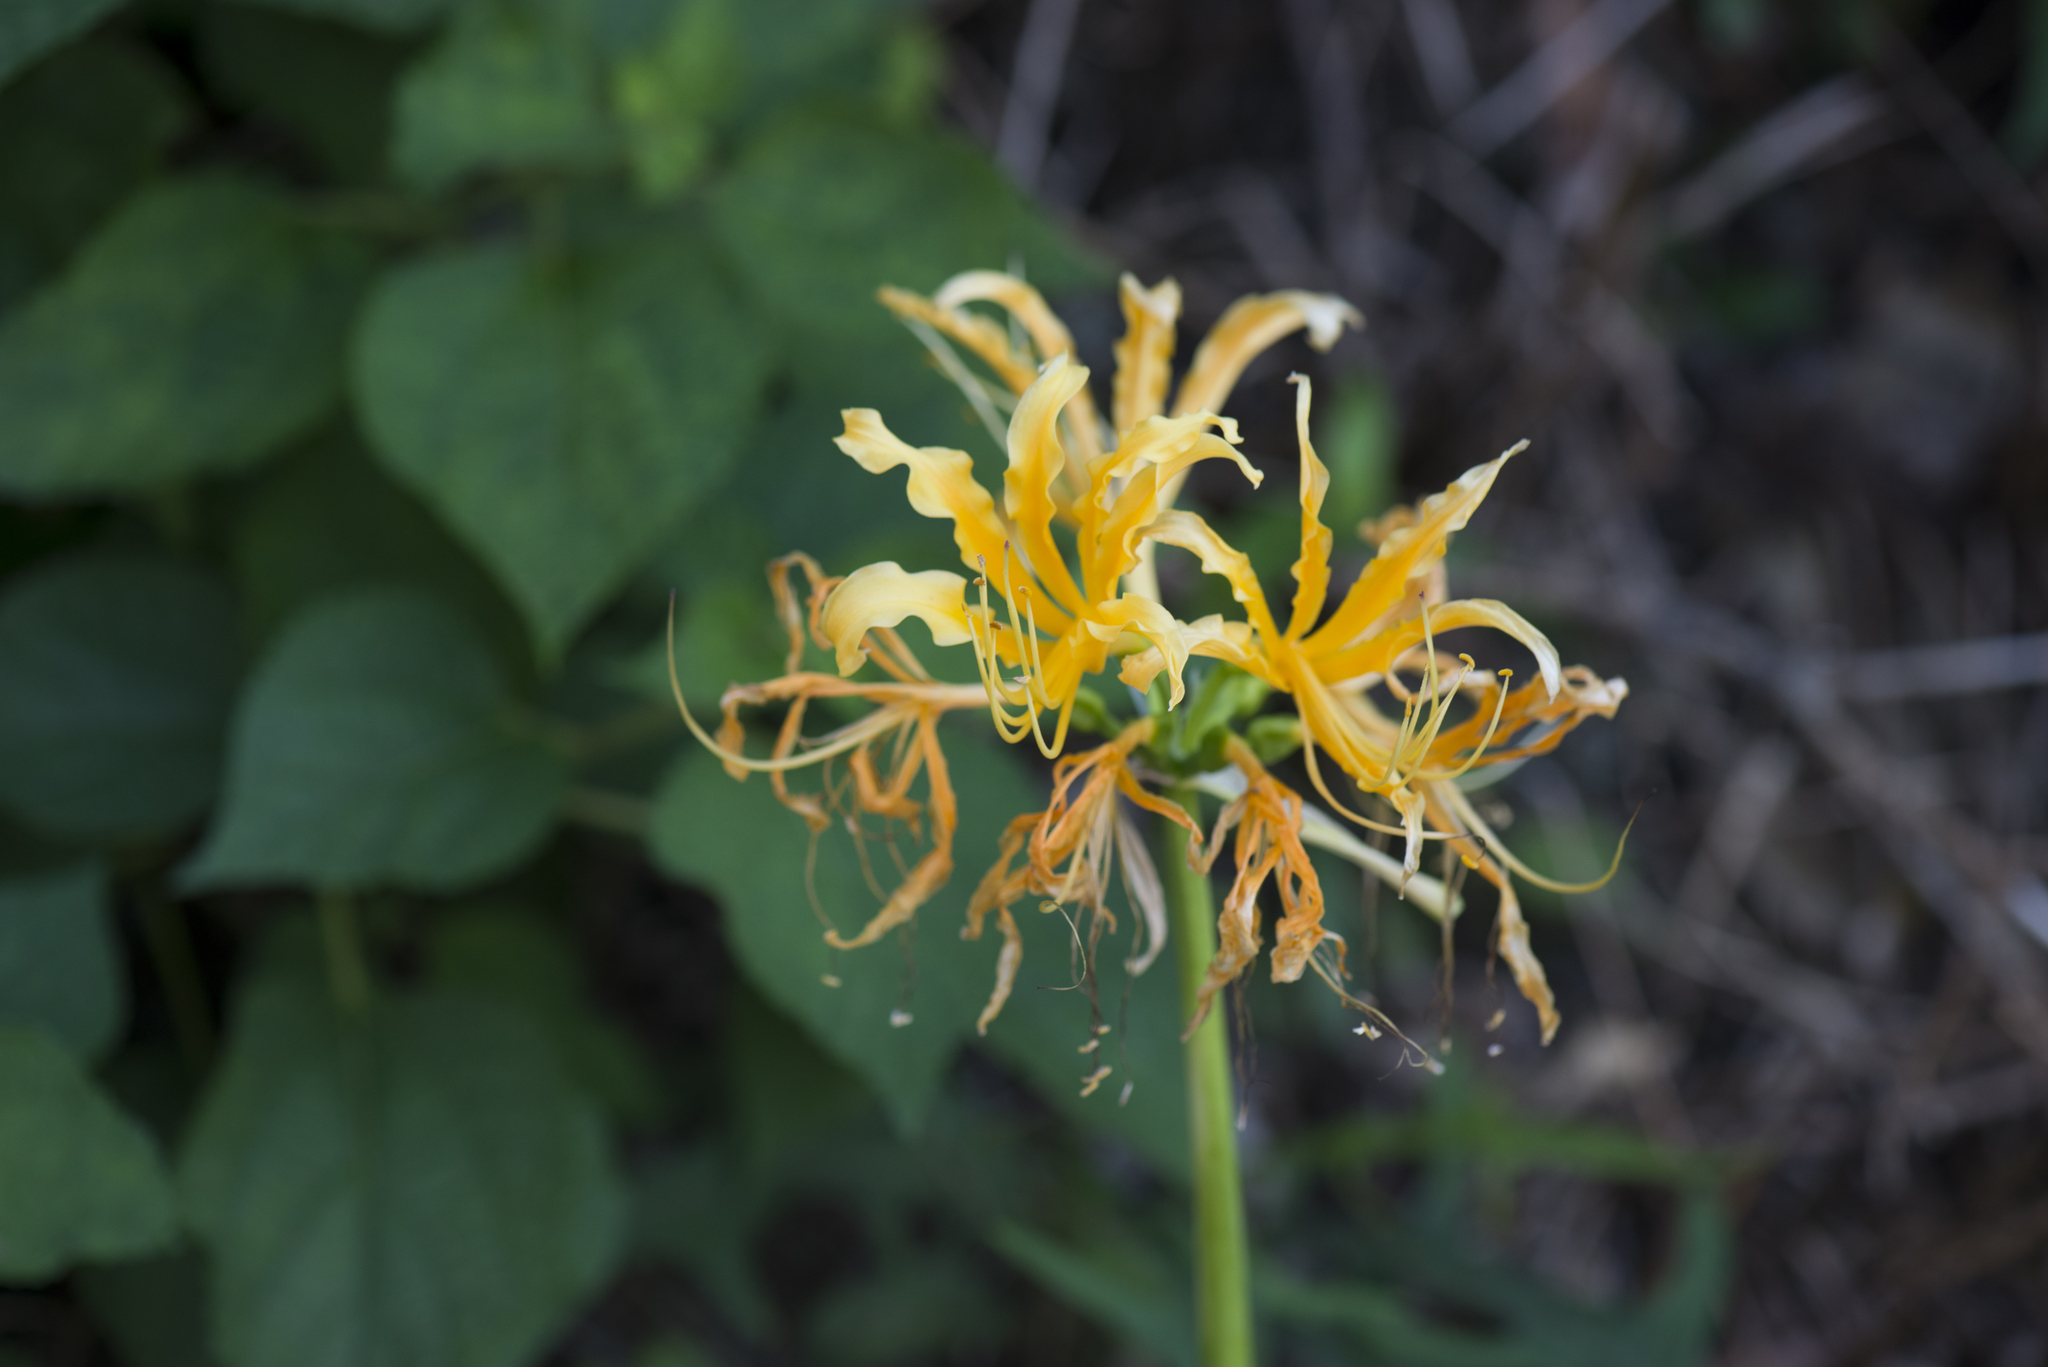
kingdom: Plantae
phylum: Tracheophyta
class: Liliopsida
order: Asparagales
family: Amaryllidaceae
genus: Lycoris
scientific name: Lycoris aurea
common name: Golden hurricane-lily
